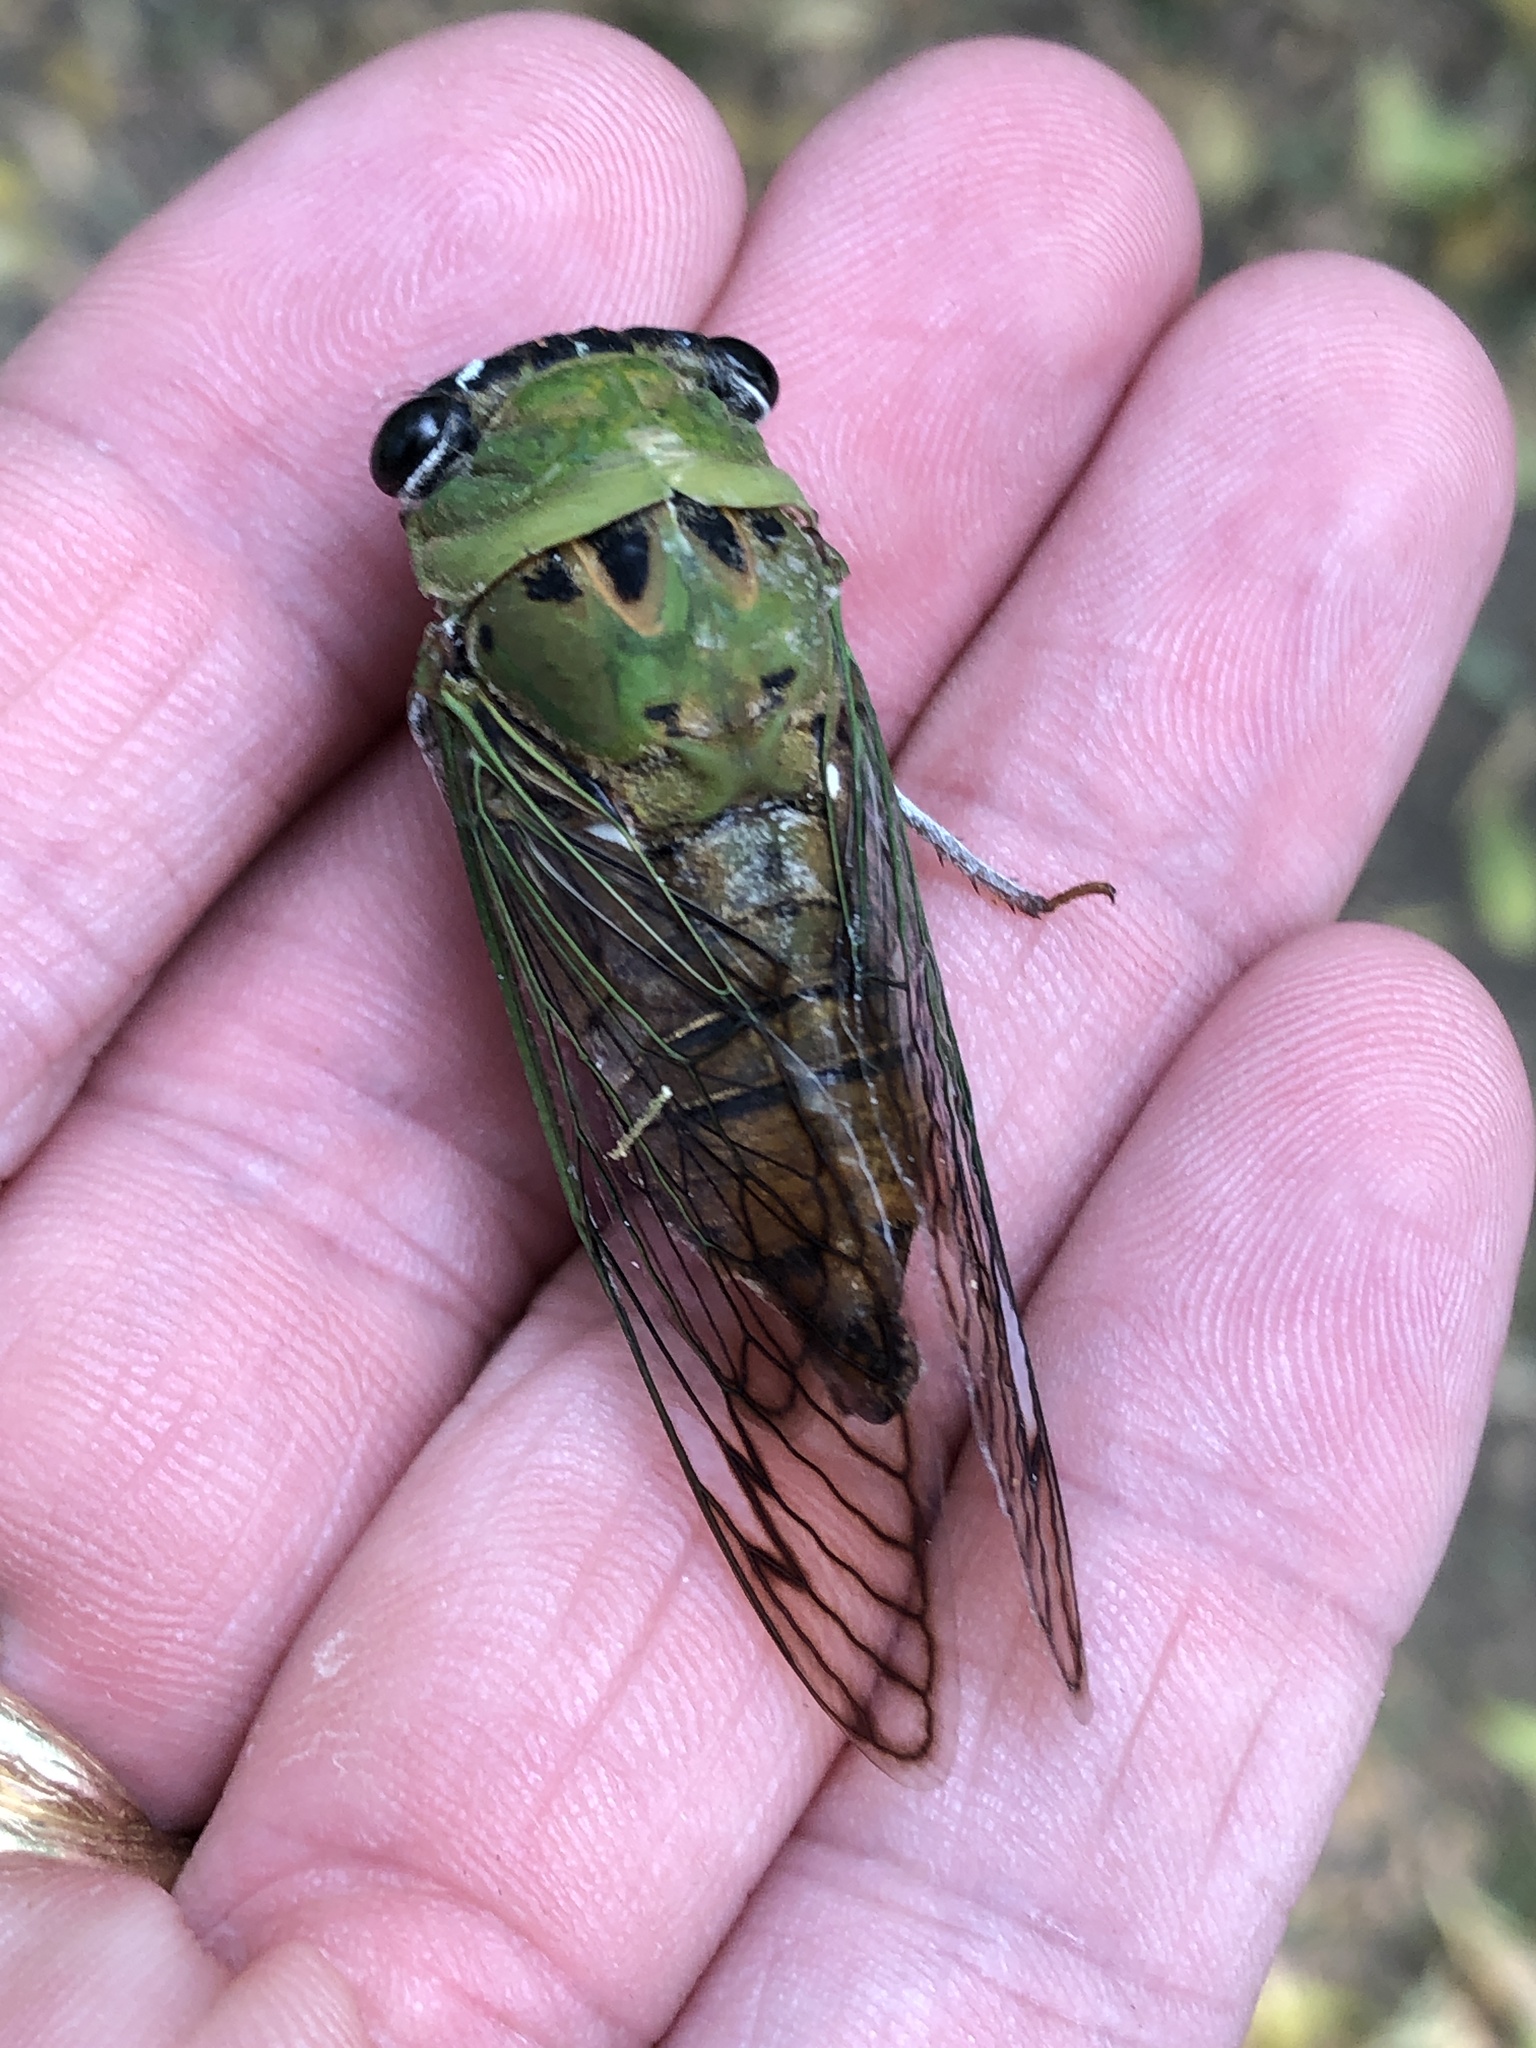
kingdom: Animalia
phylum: Arthropoda
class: Insecta
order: Hemiptera
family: Cicadidae
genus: Neotibicen
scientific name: Neotibicen superbus
